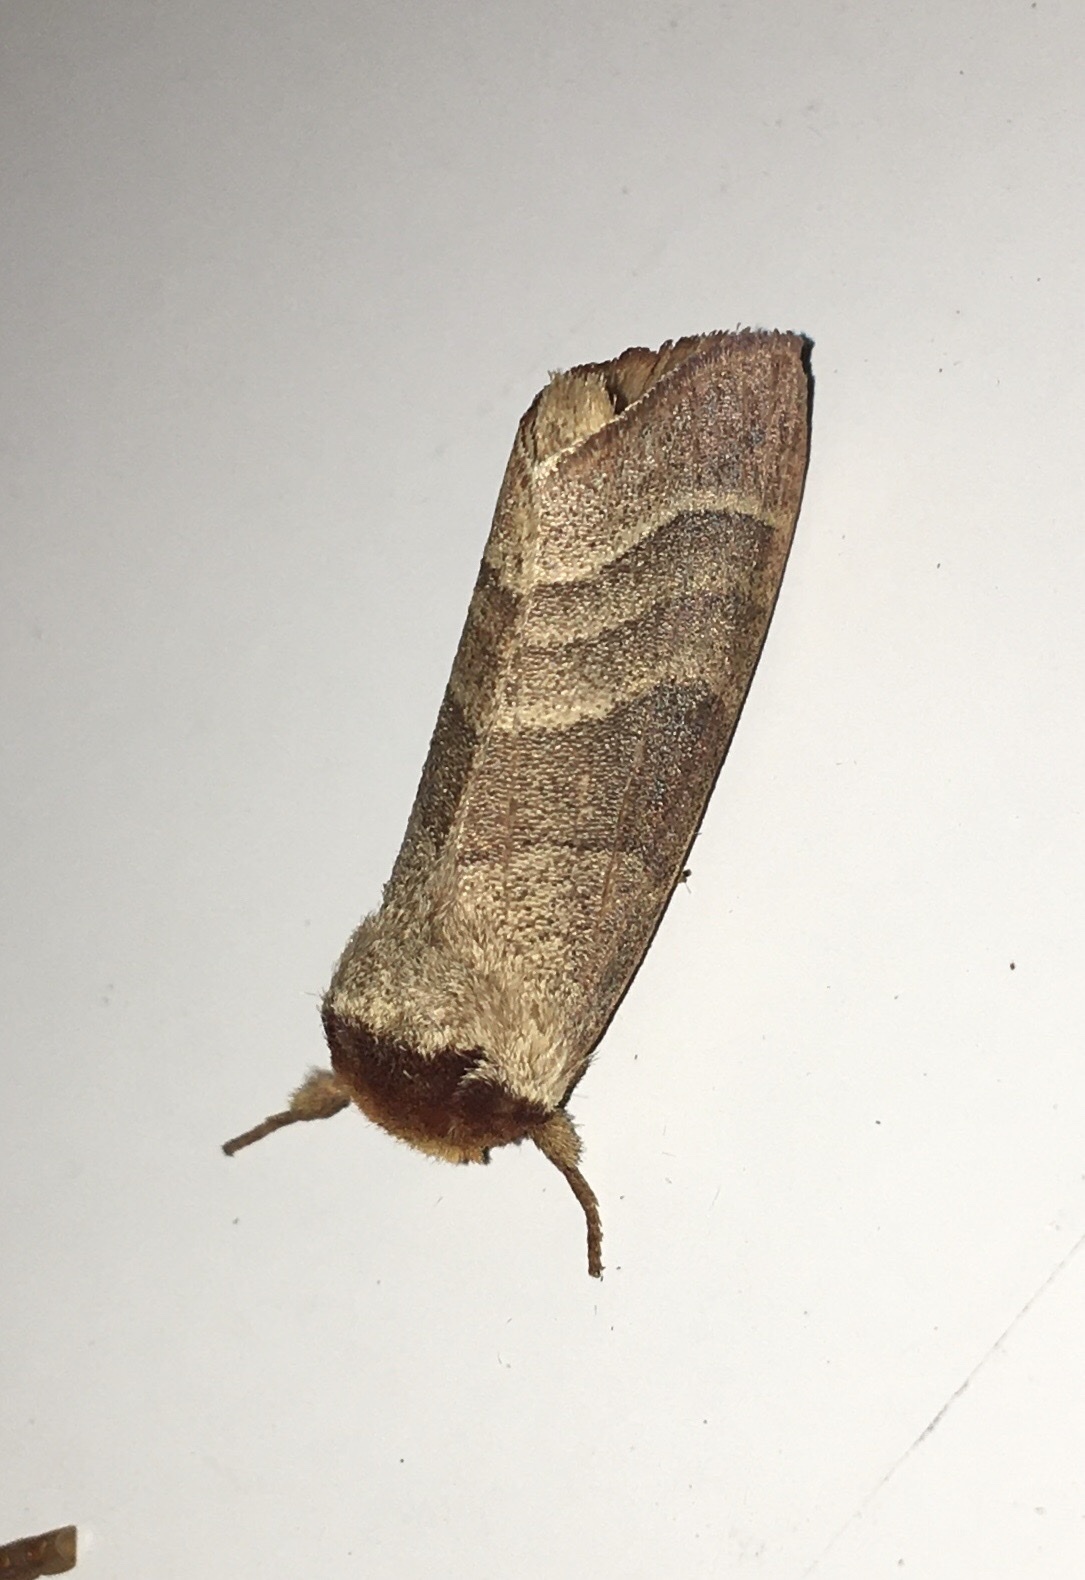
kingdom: Animalia
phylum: Arthropoda
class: Insecta
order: Lepidoptera
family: Notodontidae
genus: Datana
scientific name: Datana integerrima
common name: Walnut caterpillar
